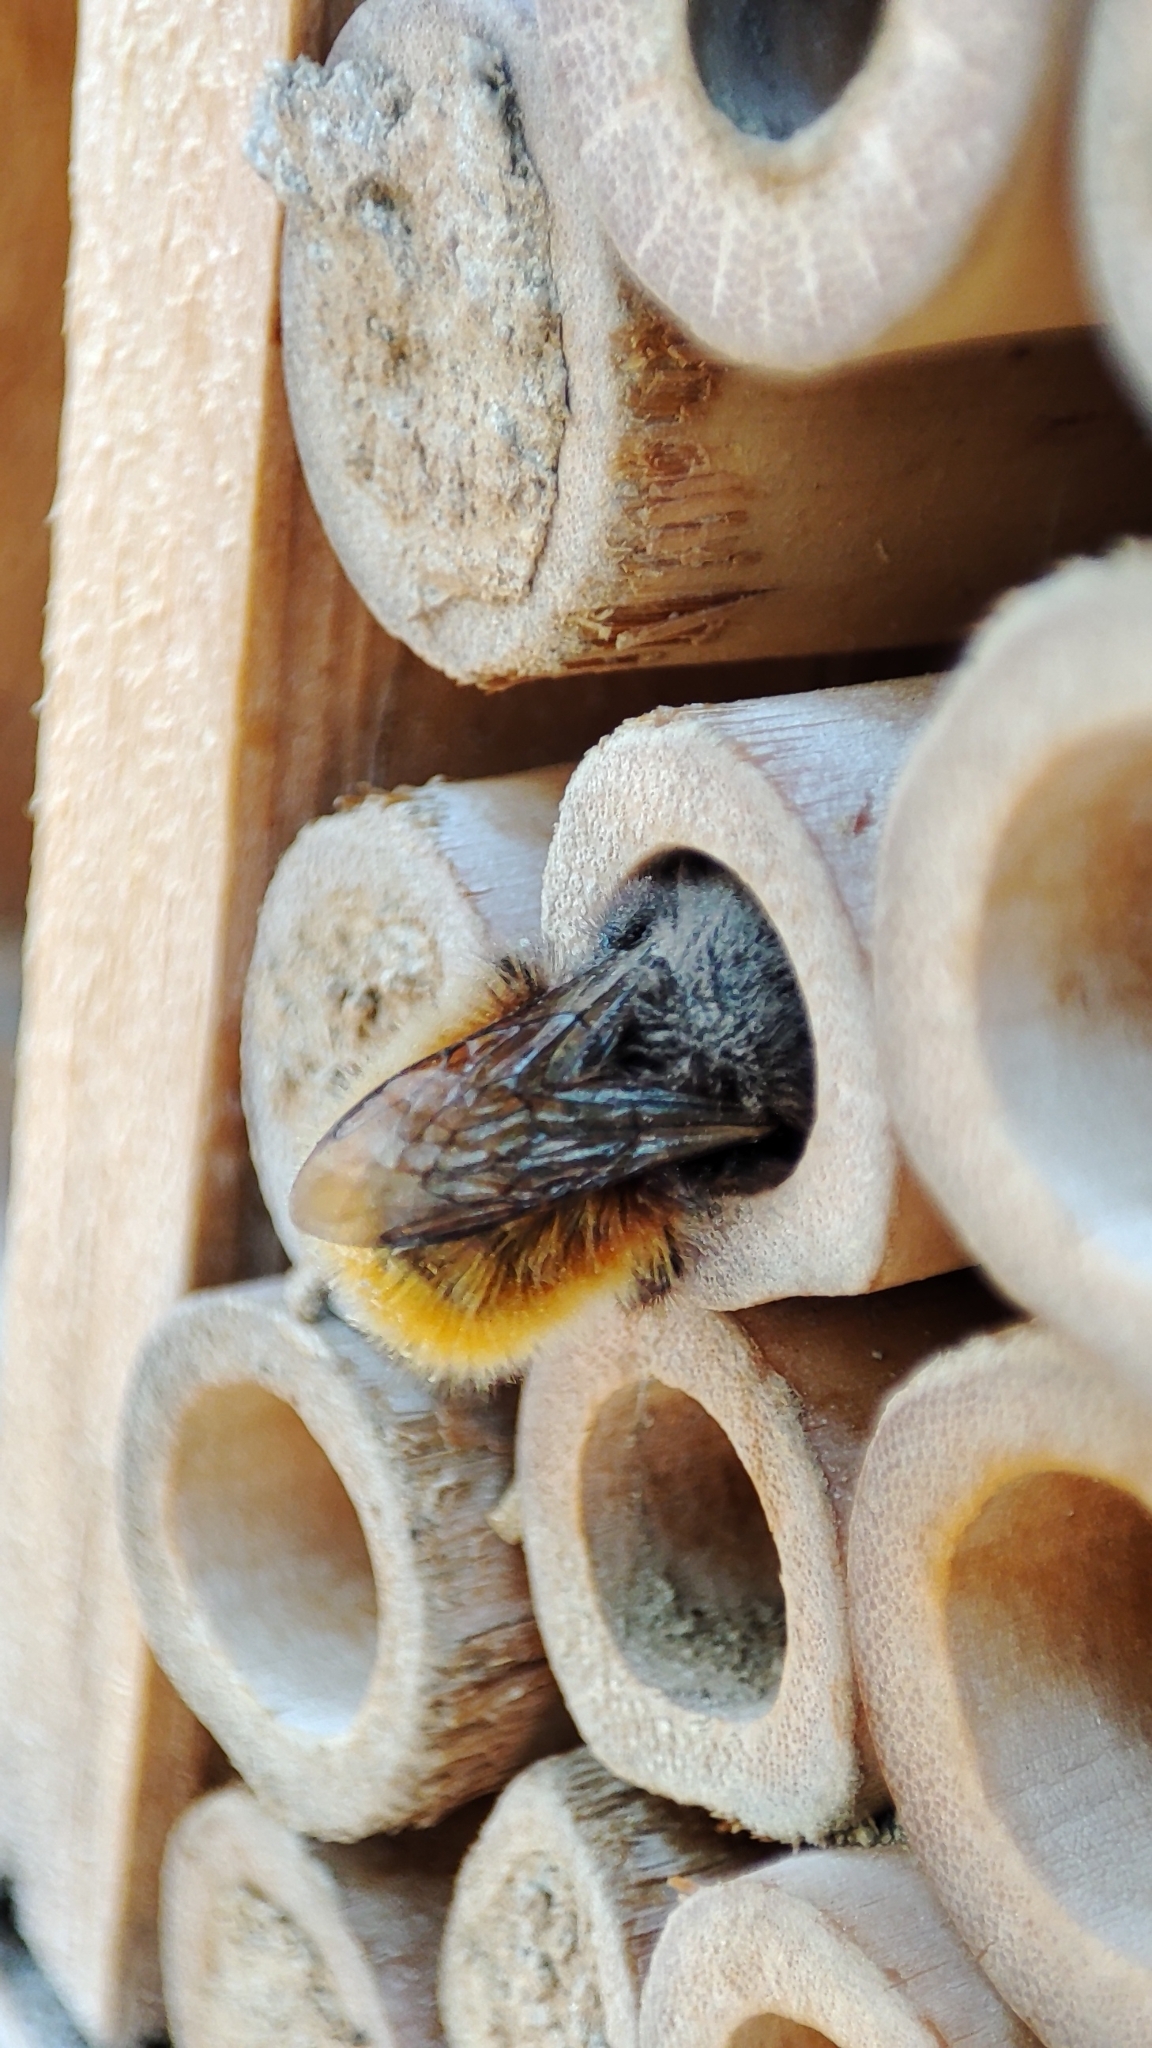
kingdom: Animalia
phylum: Arthropoda
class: Insecta
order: Hymenoptera
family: Megachilidae
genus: Osmia
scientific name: Osmia cornuta
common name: Mason bee
